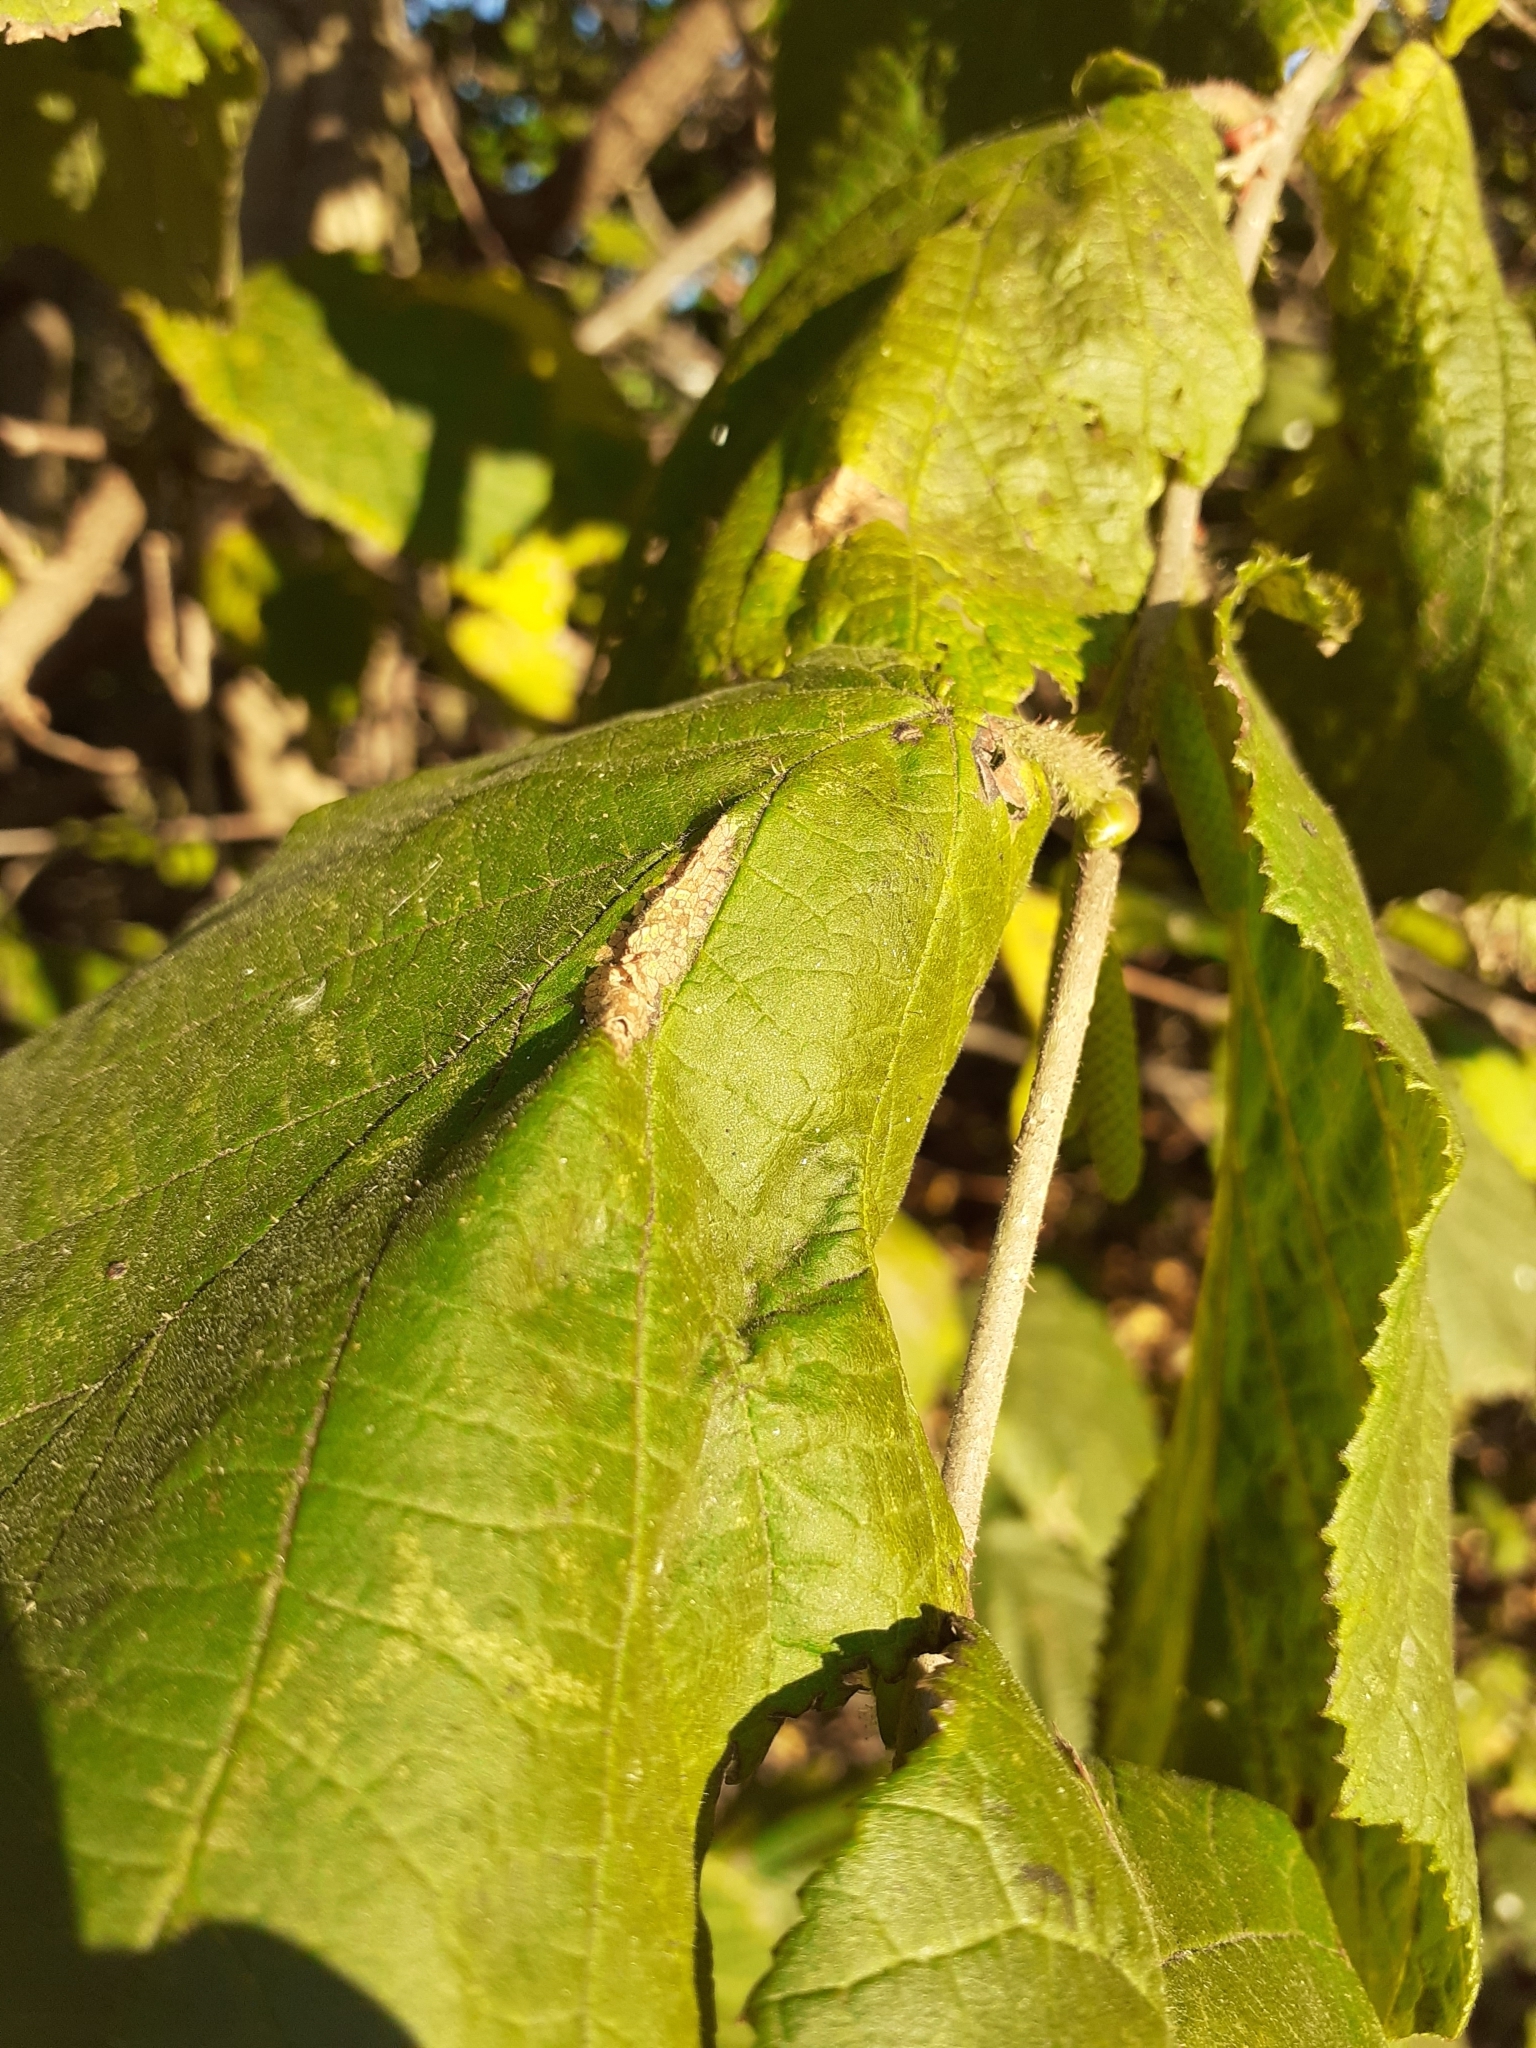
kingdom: Animalia
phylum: Arthropoda
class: Insecta
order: Lepidoptera
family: Gracillariidae
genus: Phyllonorycter
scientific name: Phyllonorycter nicellii
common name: Red hazel midget
